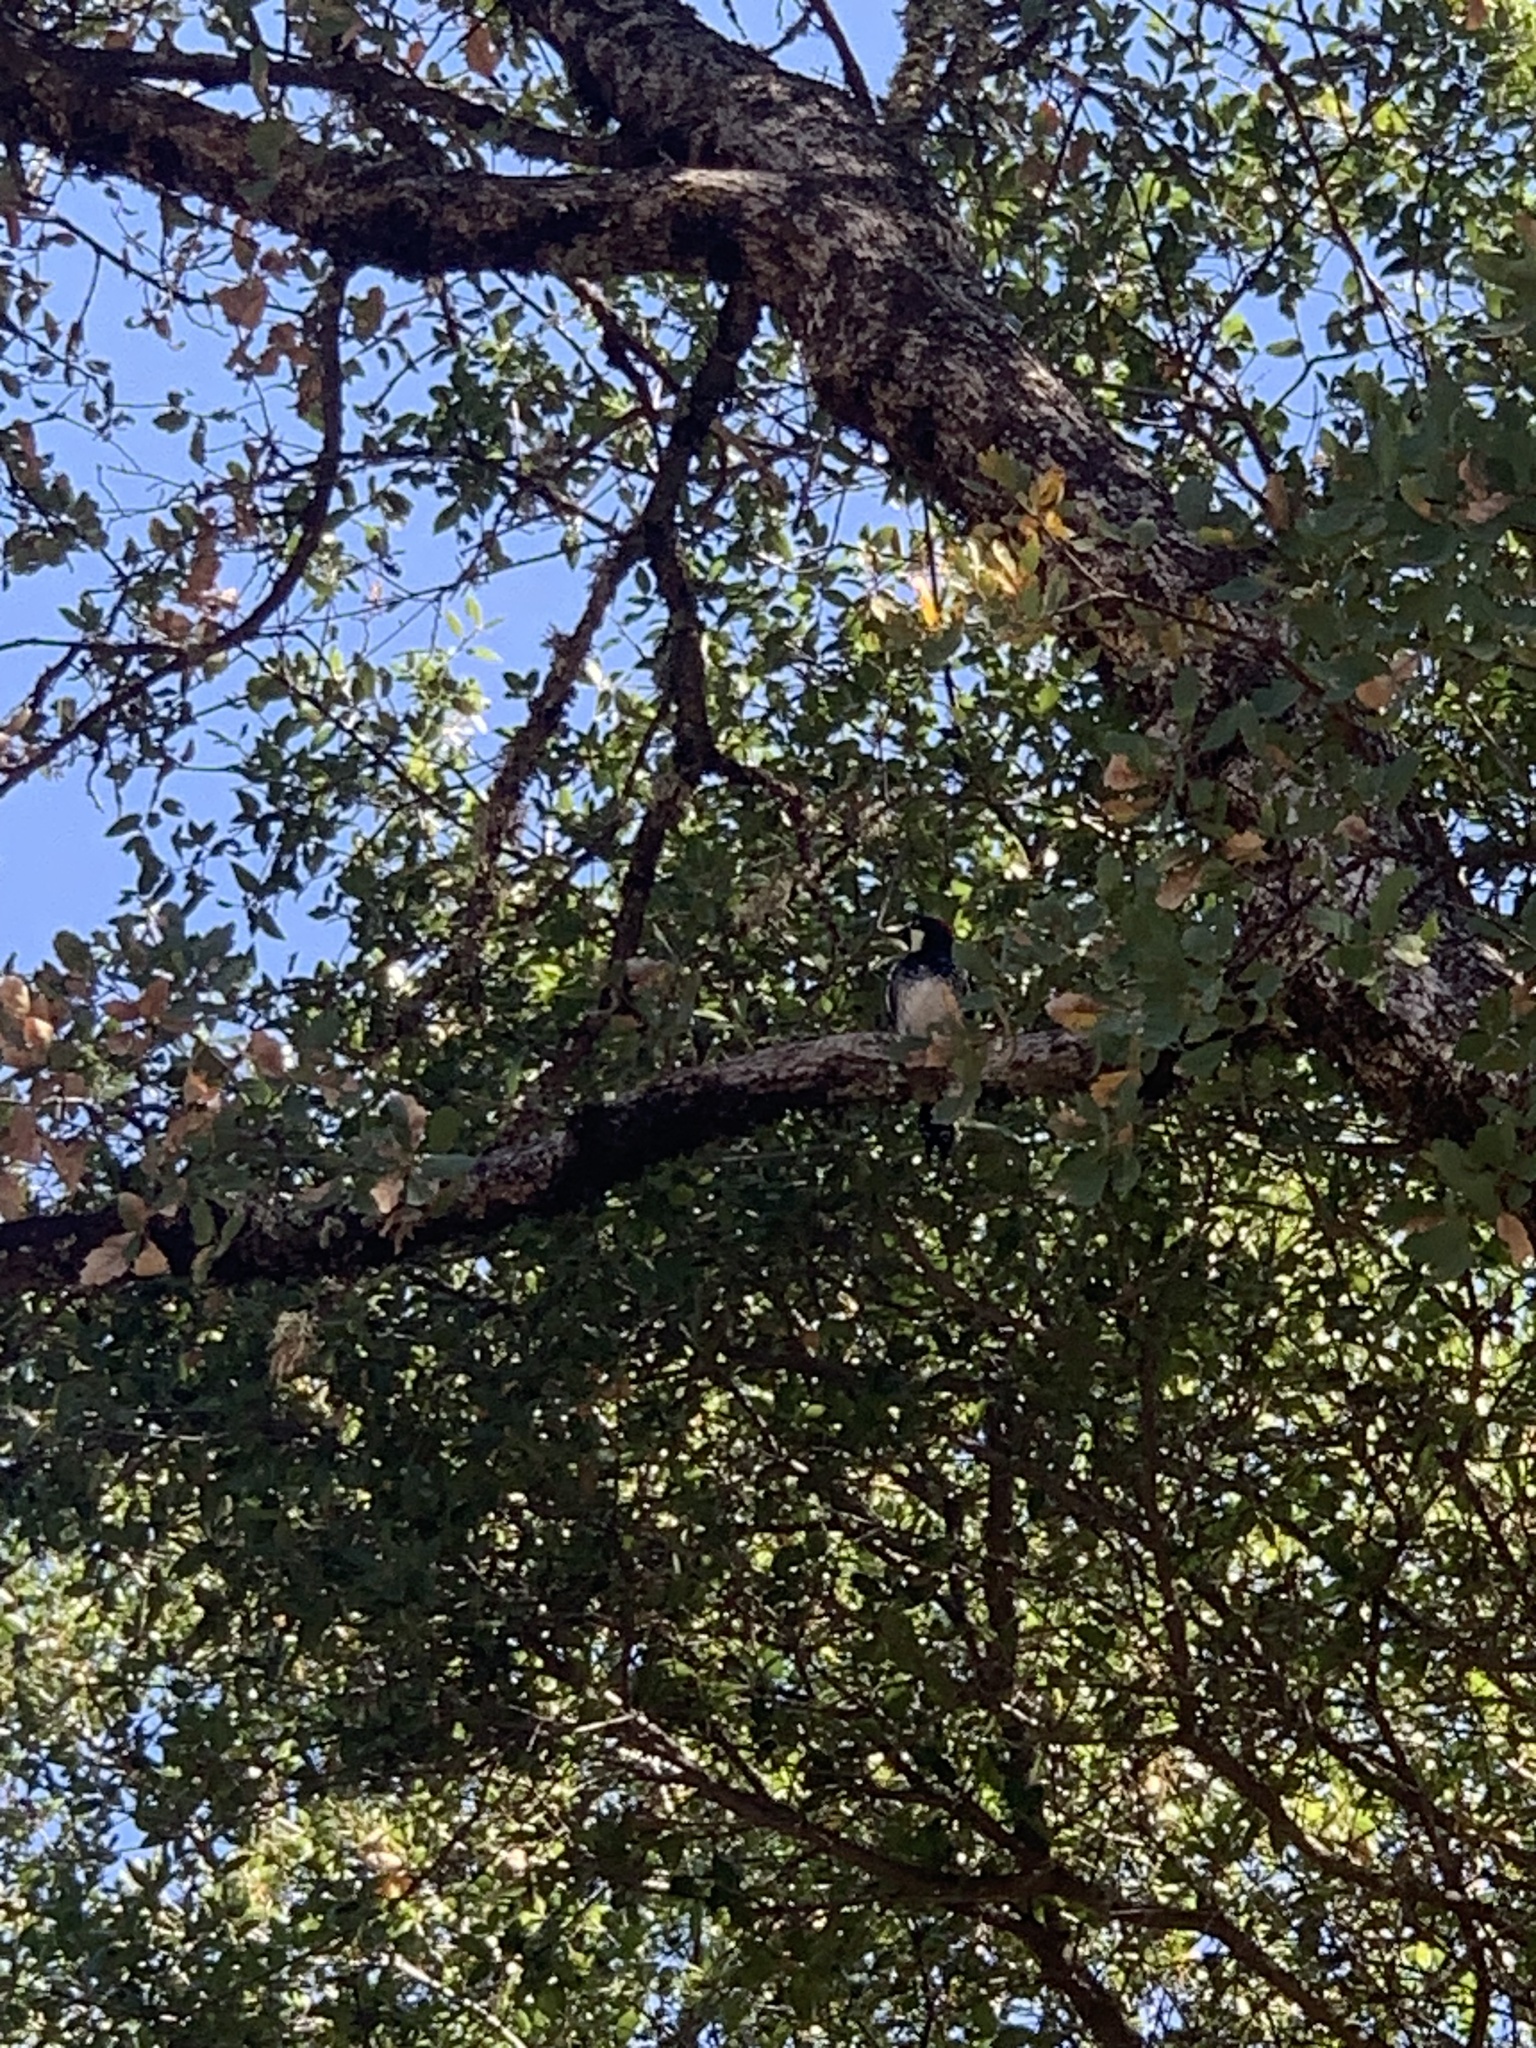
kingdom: Animalia
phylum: Chordata
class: Aves
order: Piciformes
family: Picidae
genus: Melanerpes
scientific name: Melanerpes formicivorus
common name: Acorn woodpecker
